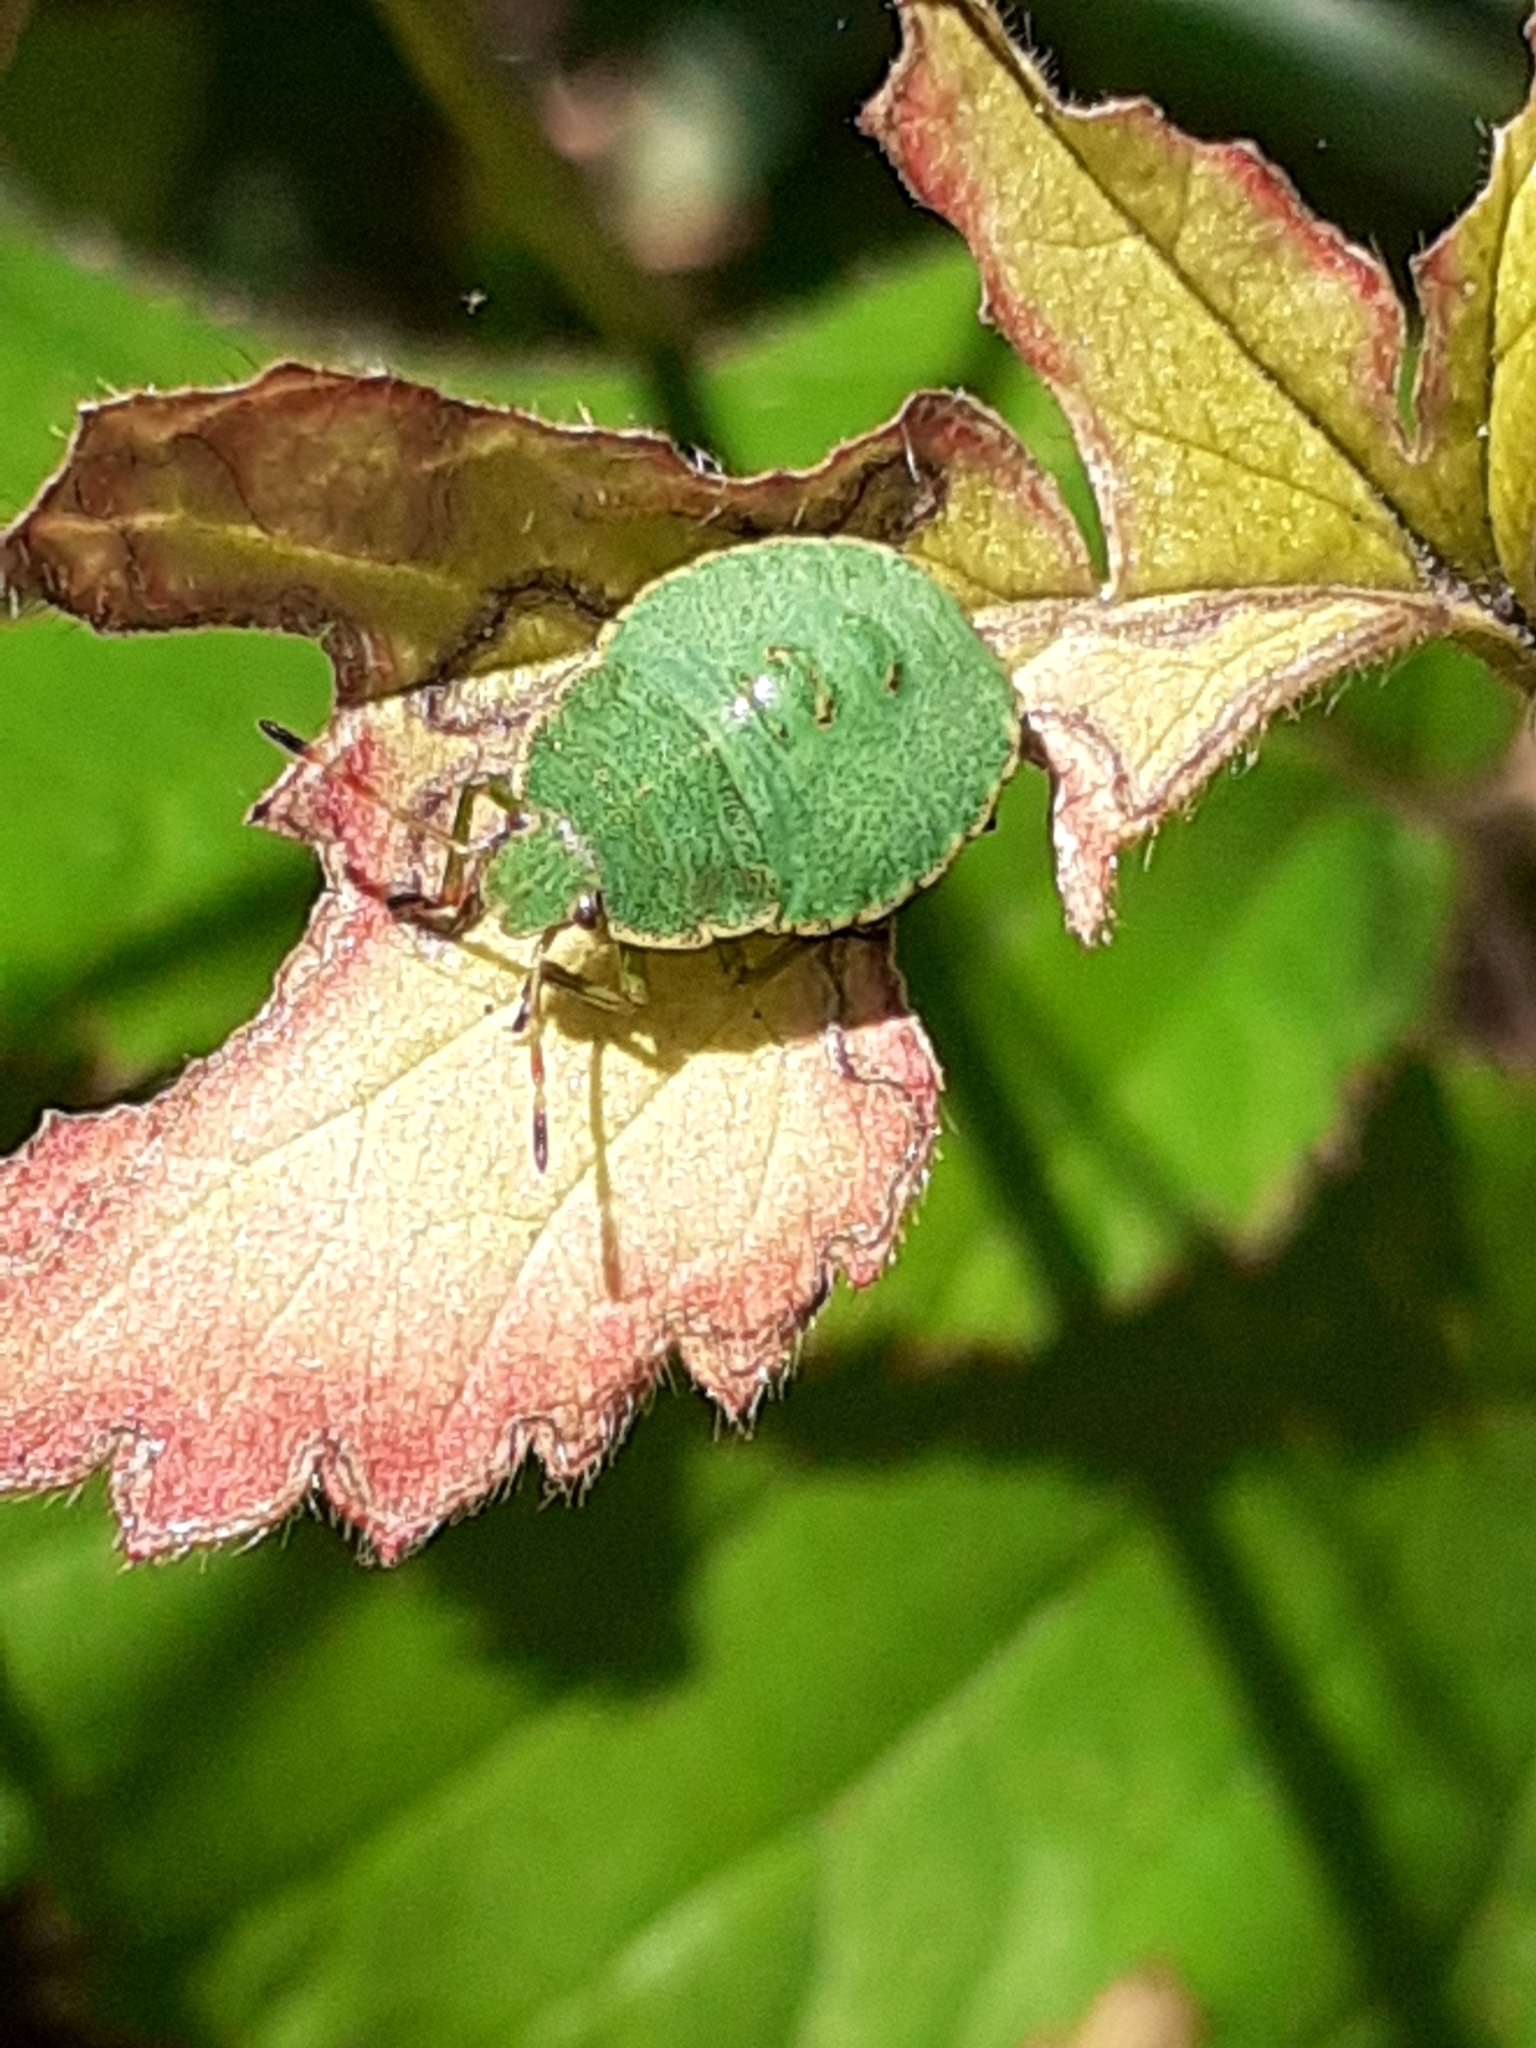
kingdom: Animalia
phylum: Arthropoda
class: Insecta
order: Hemiptera
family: Pentatomidae
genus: Palomena
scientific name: Palomena prasina
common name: Green shieldbug
